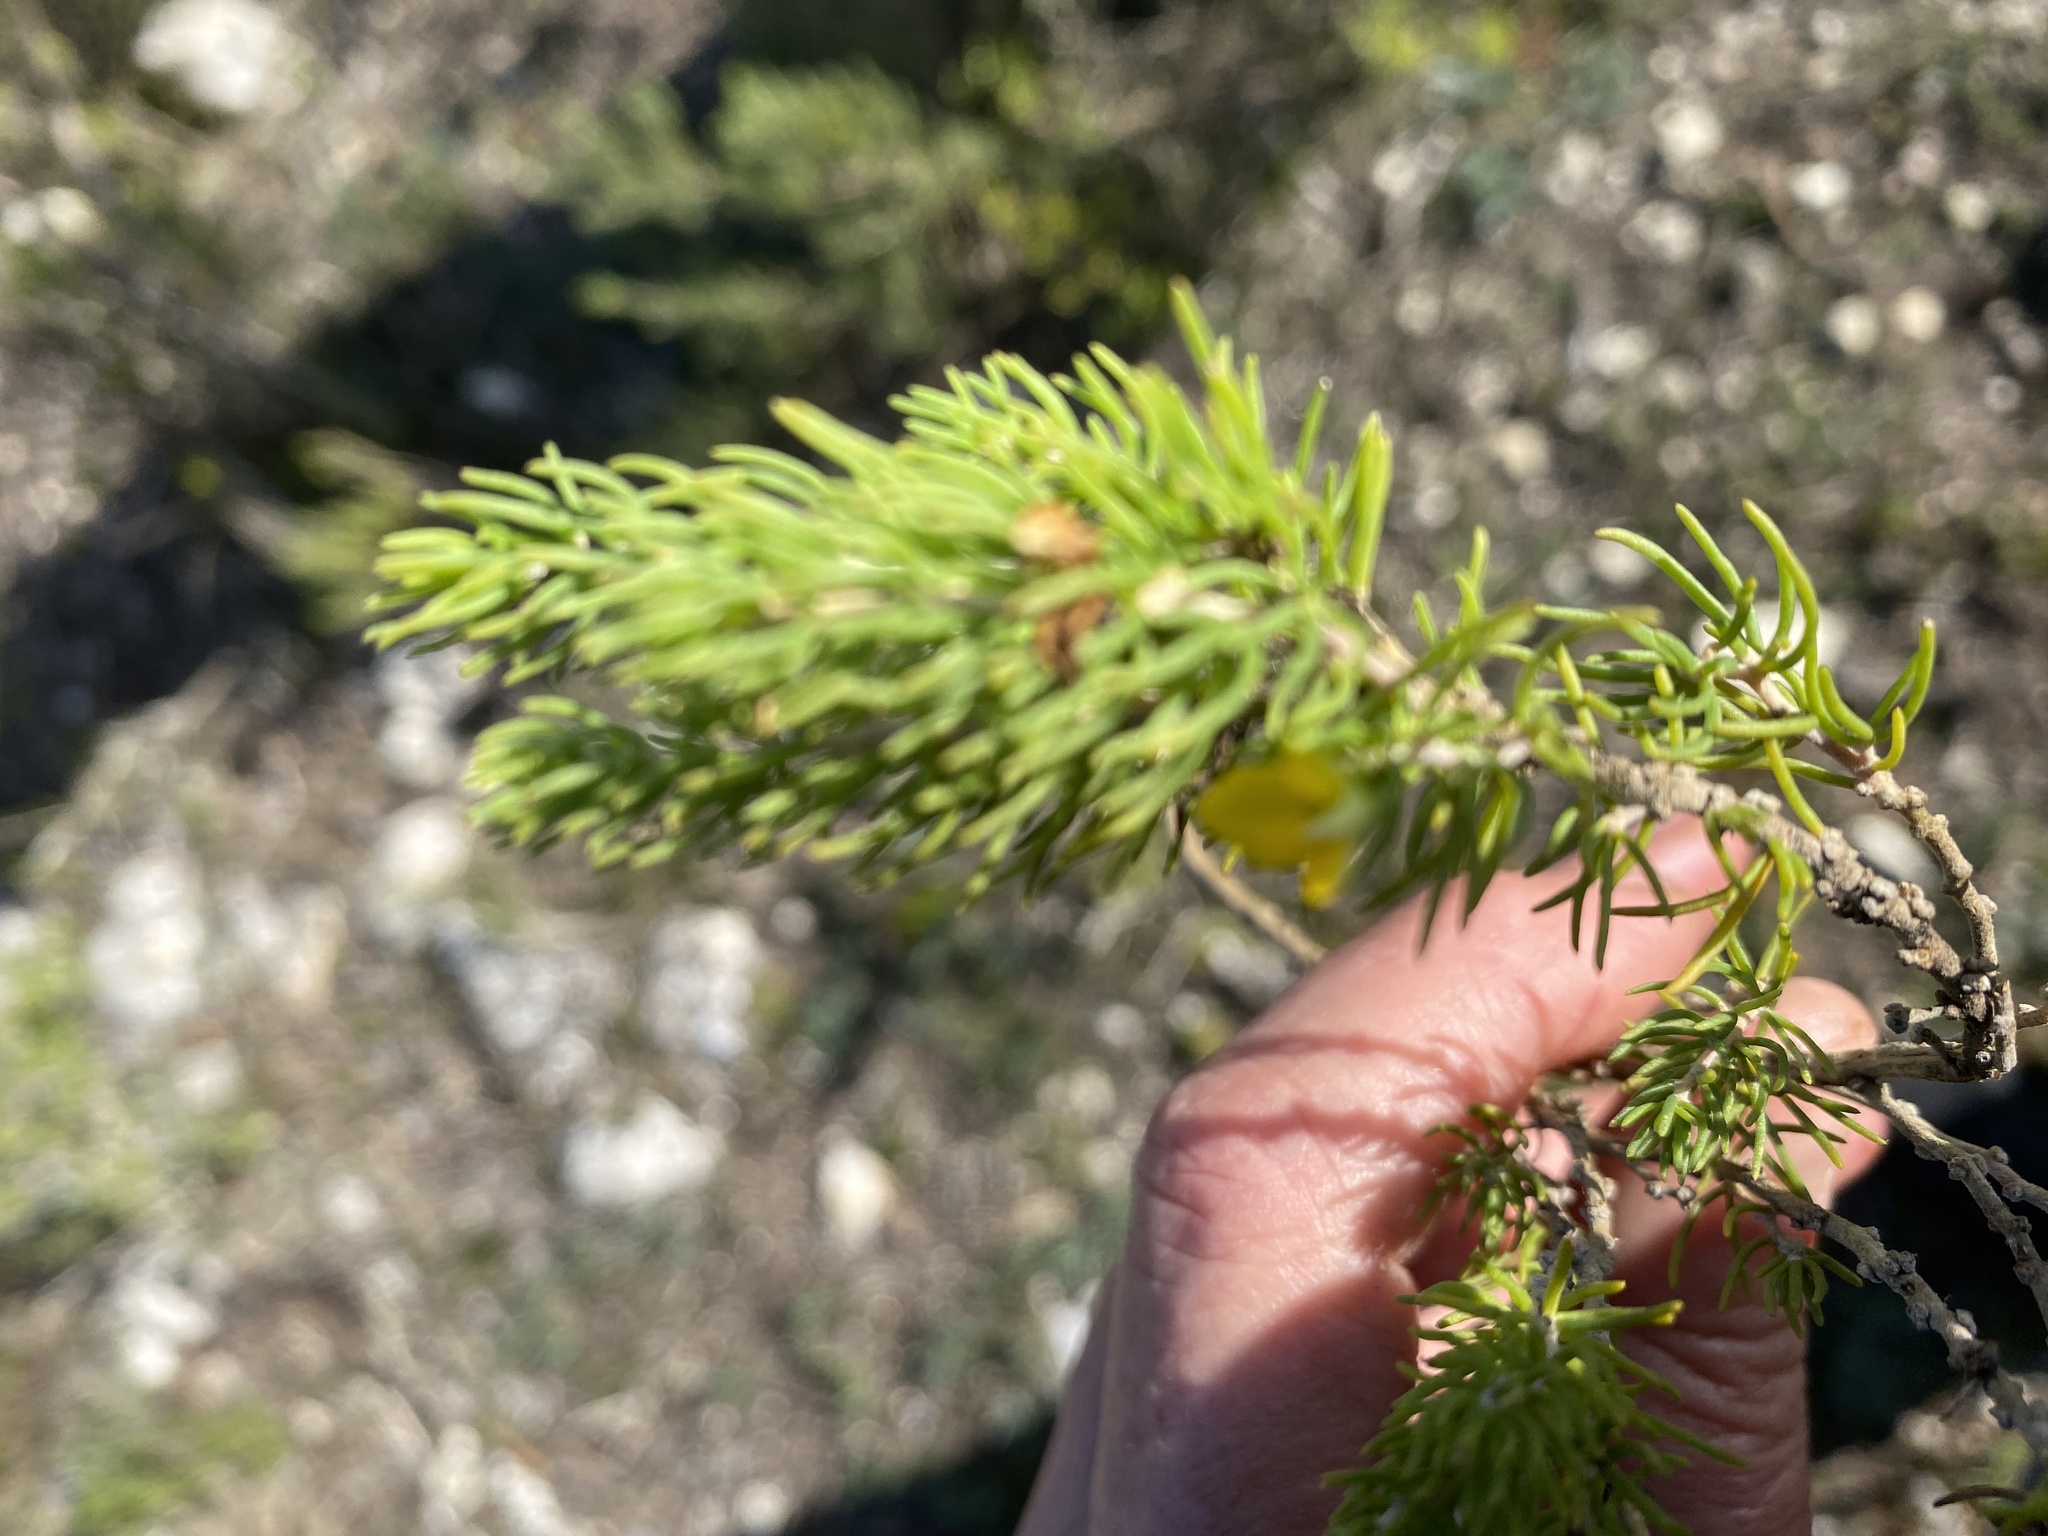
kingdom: Plantae
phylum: Tracheophyta
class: Magnoliopsida
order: Fabales
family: Fabaceae
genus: Aspalathus
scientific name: Aspalathus sanguinea
